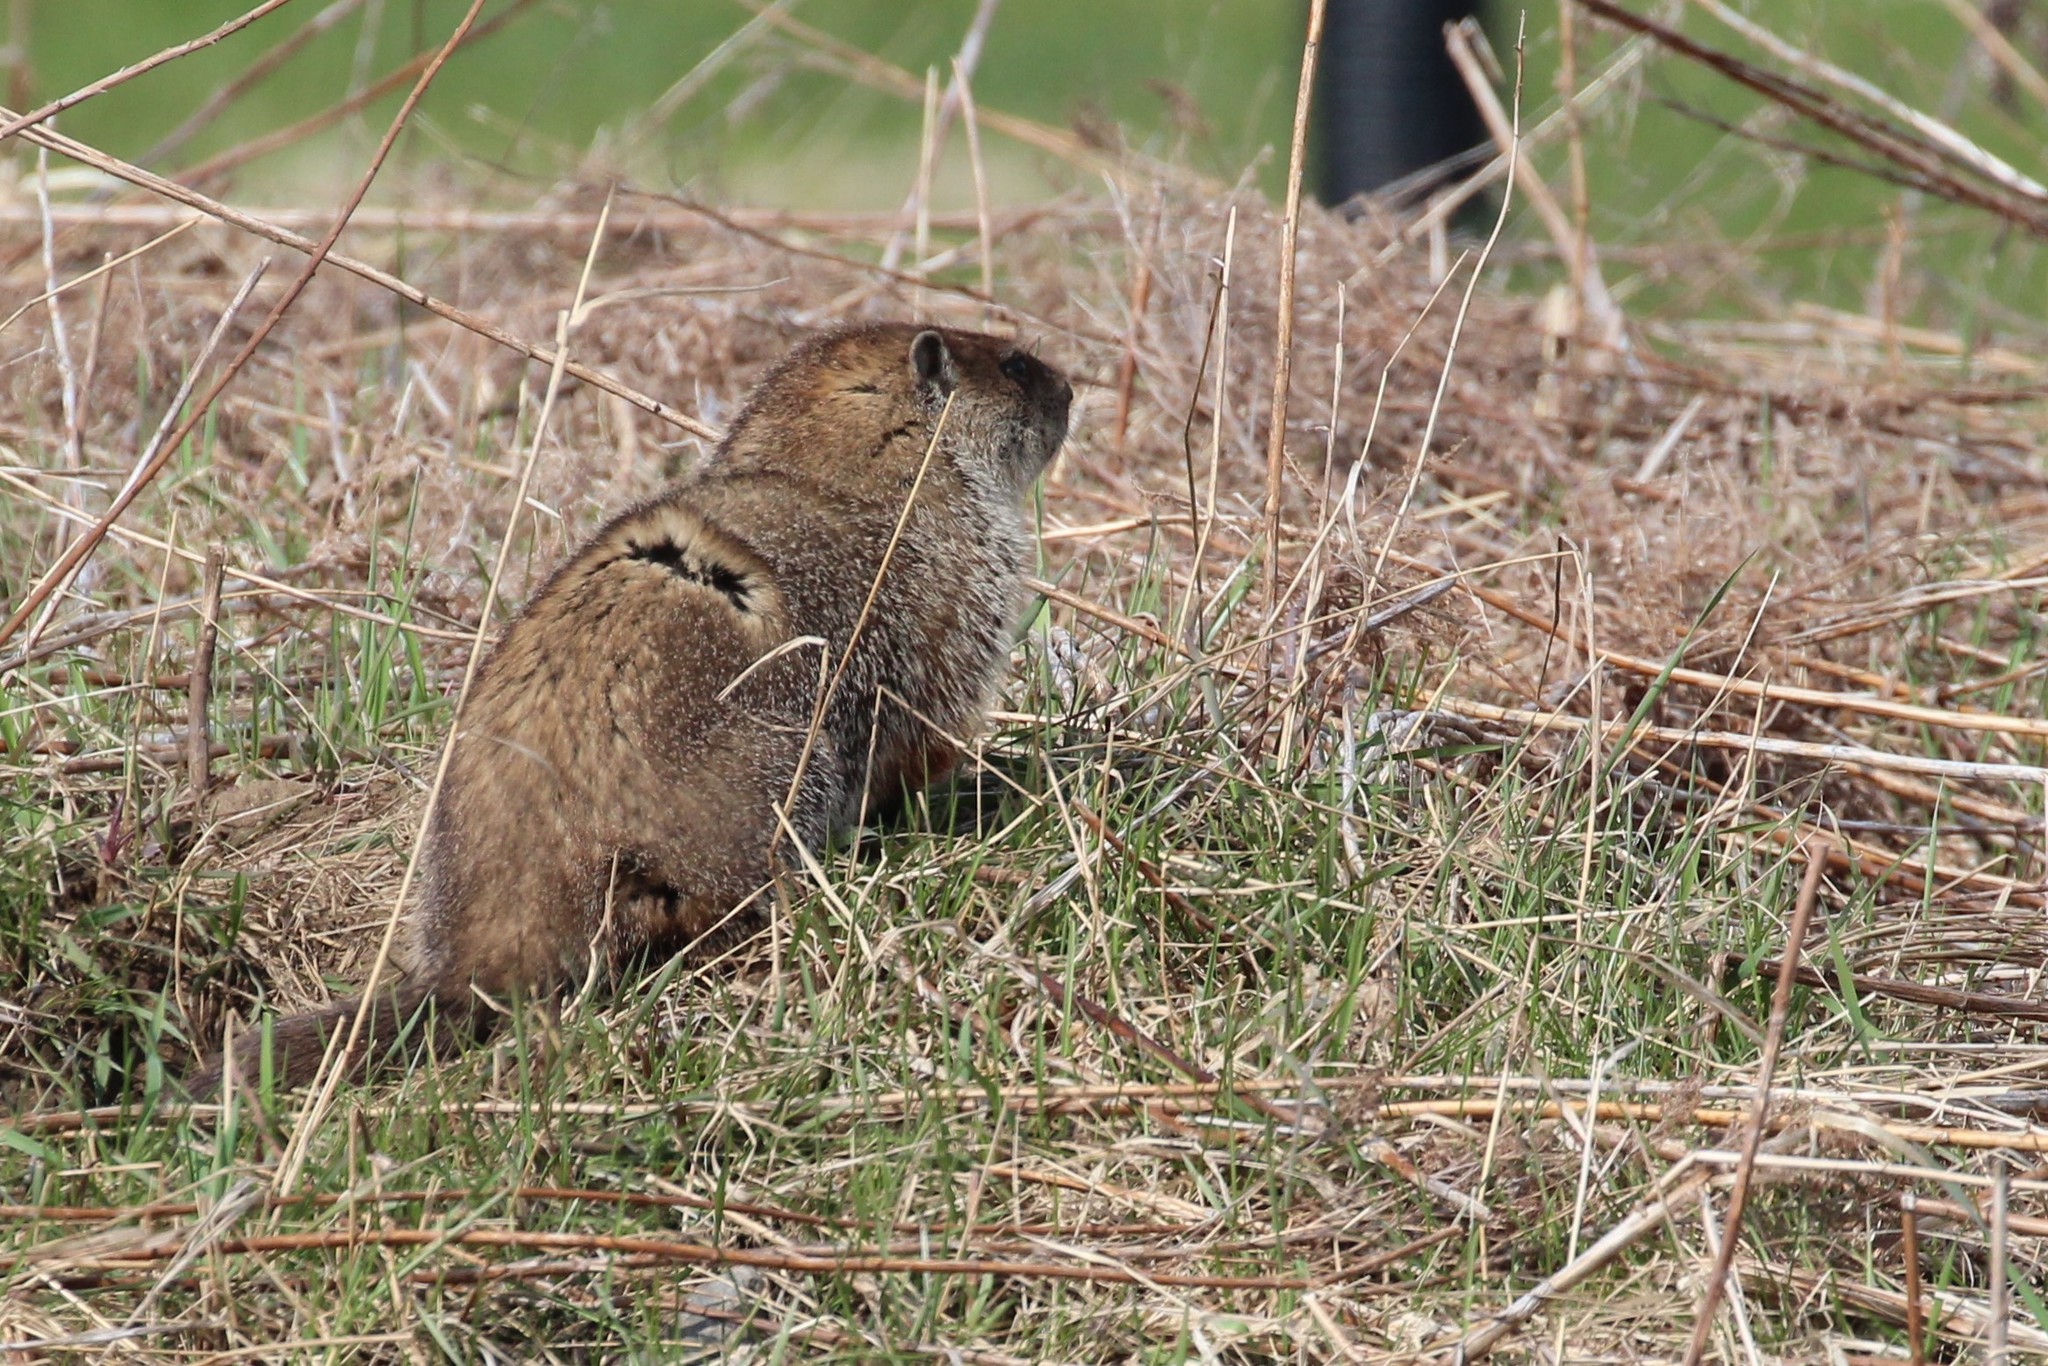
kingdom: Animalia
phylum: Chordata
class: Mammalia
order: Rodentia
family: Sciuridae
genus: Marmota
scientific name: Marmota monax
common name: Groundhog
